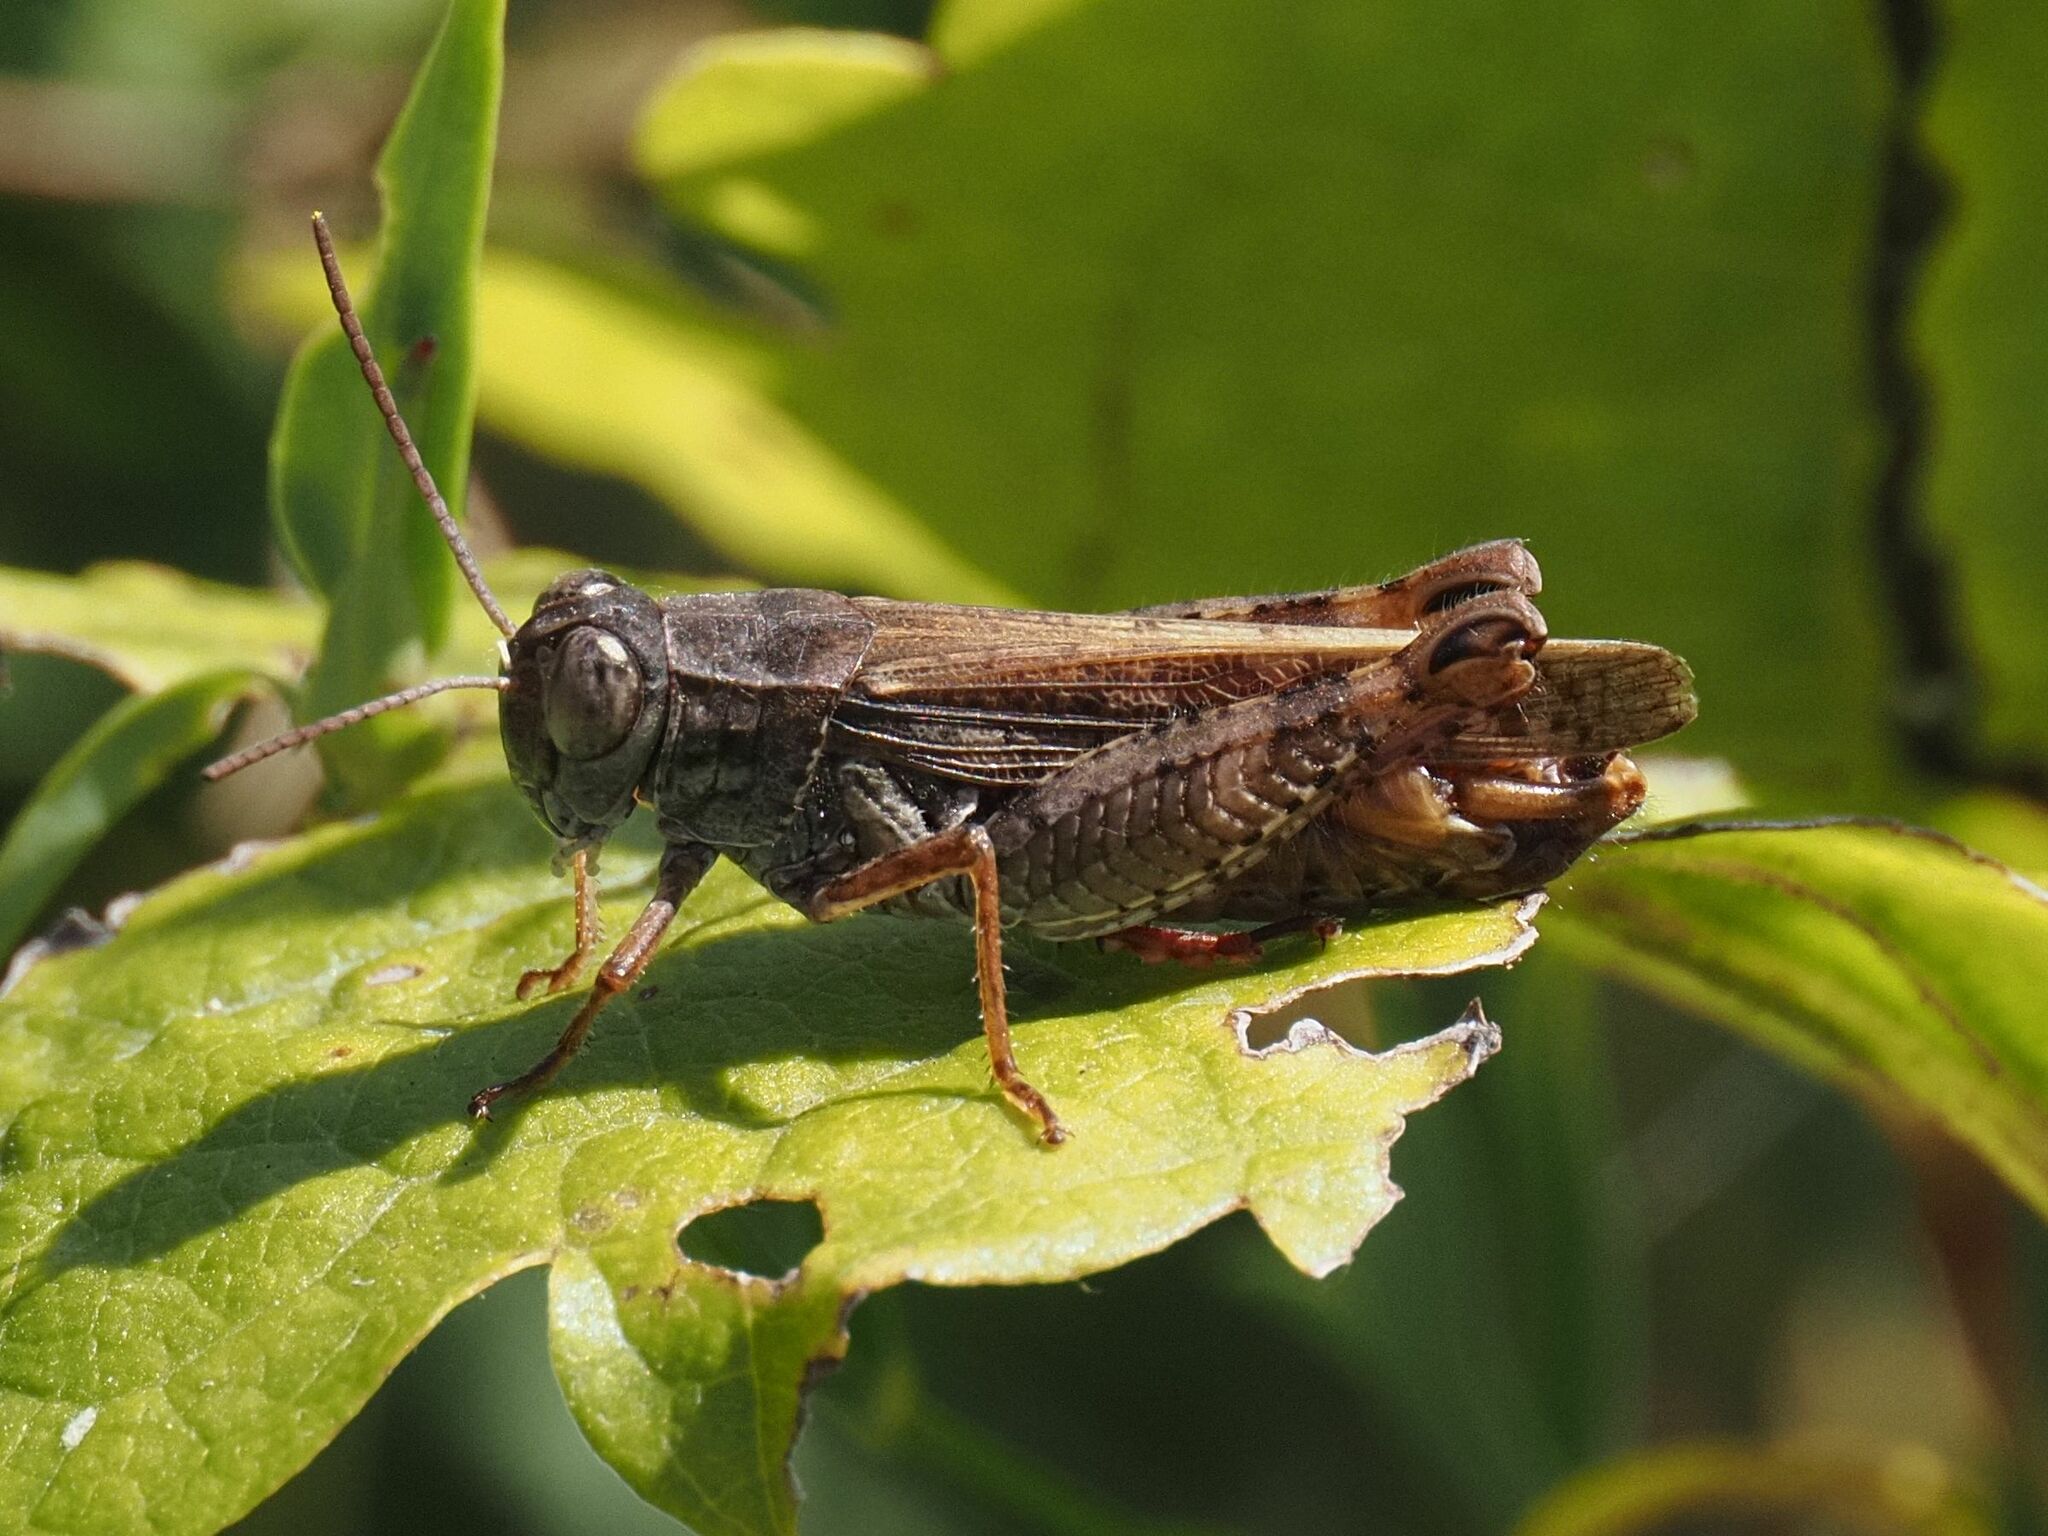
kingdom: Animalia
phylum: Arthropoda
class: Insecta
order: Orthoptera
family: Acrididae
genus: Calliptamus
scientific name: Calliptamus italicus
